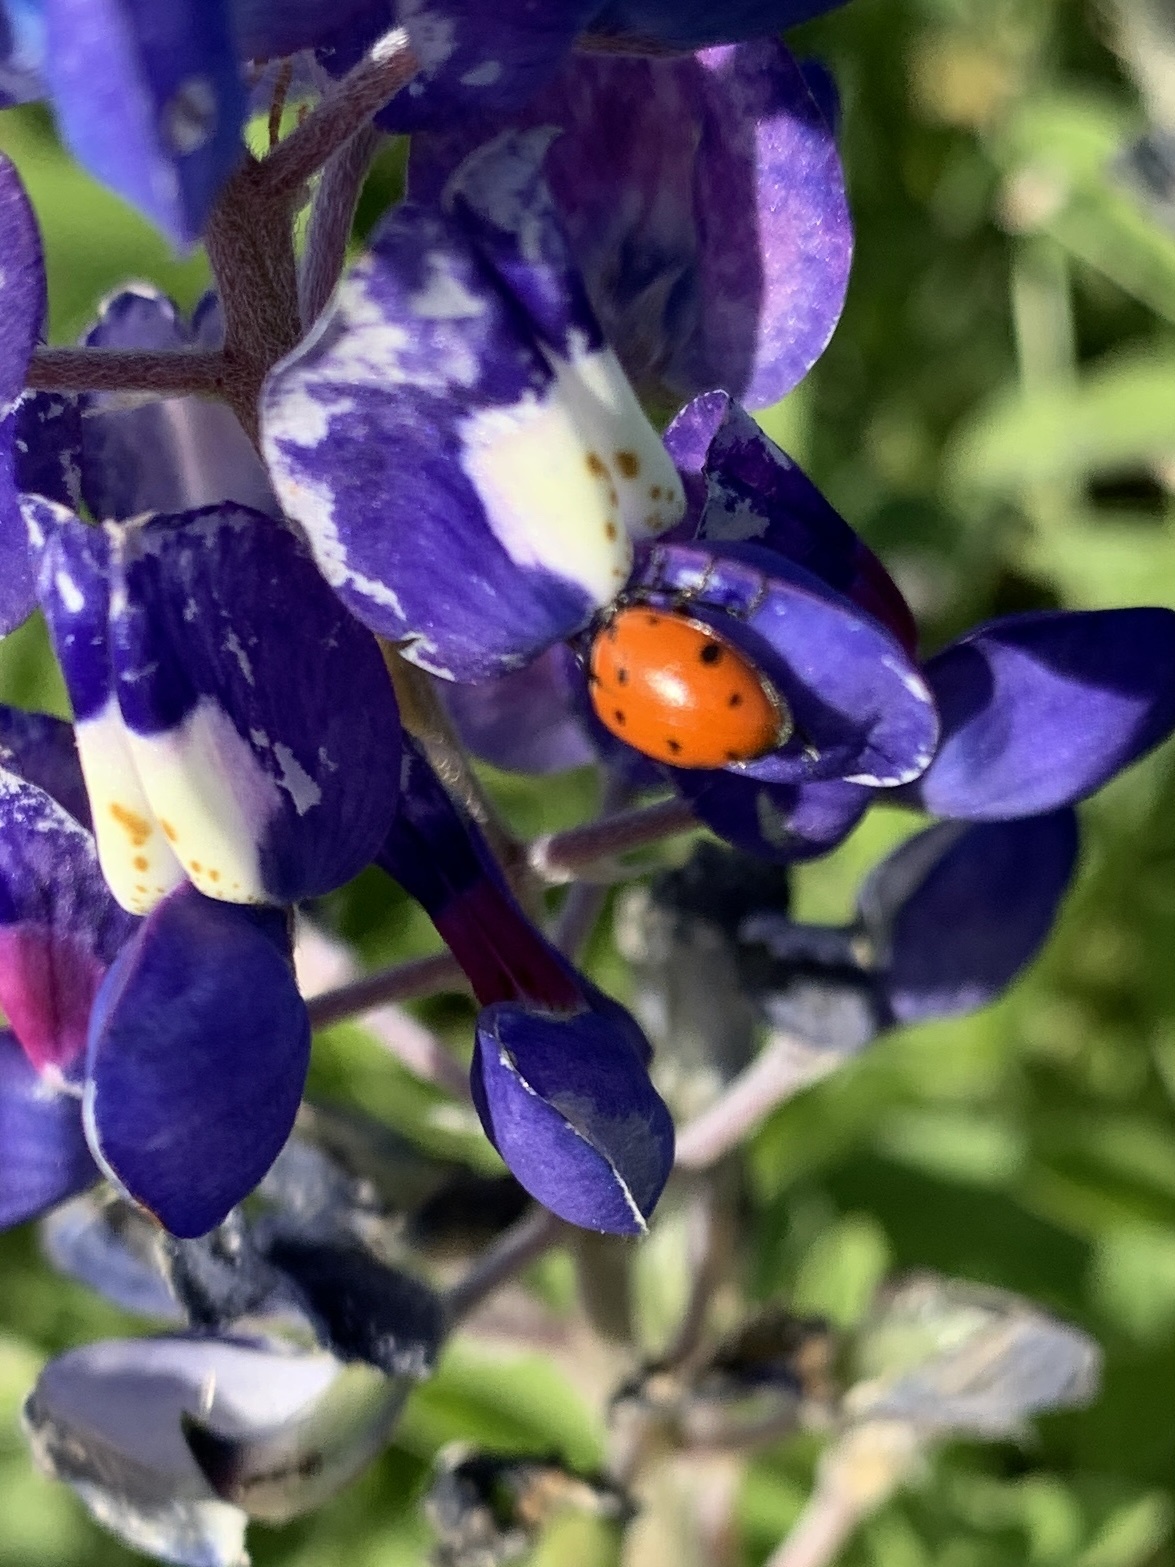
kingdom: Animalia
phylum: Arthropoda
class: Insecta
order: Coleoptera
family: Coccinellidae
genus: Hippodamia
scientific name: Hippodamia convergens
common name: Convergent lady beetle
